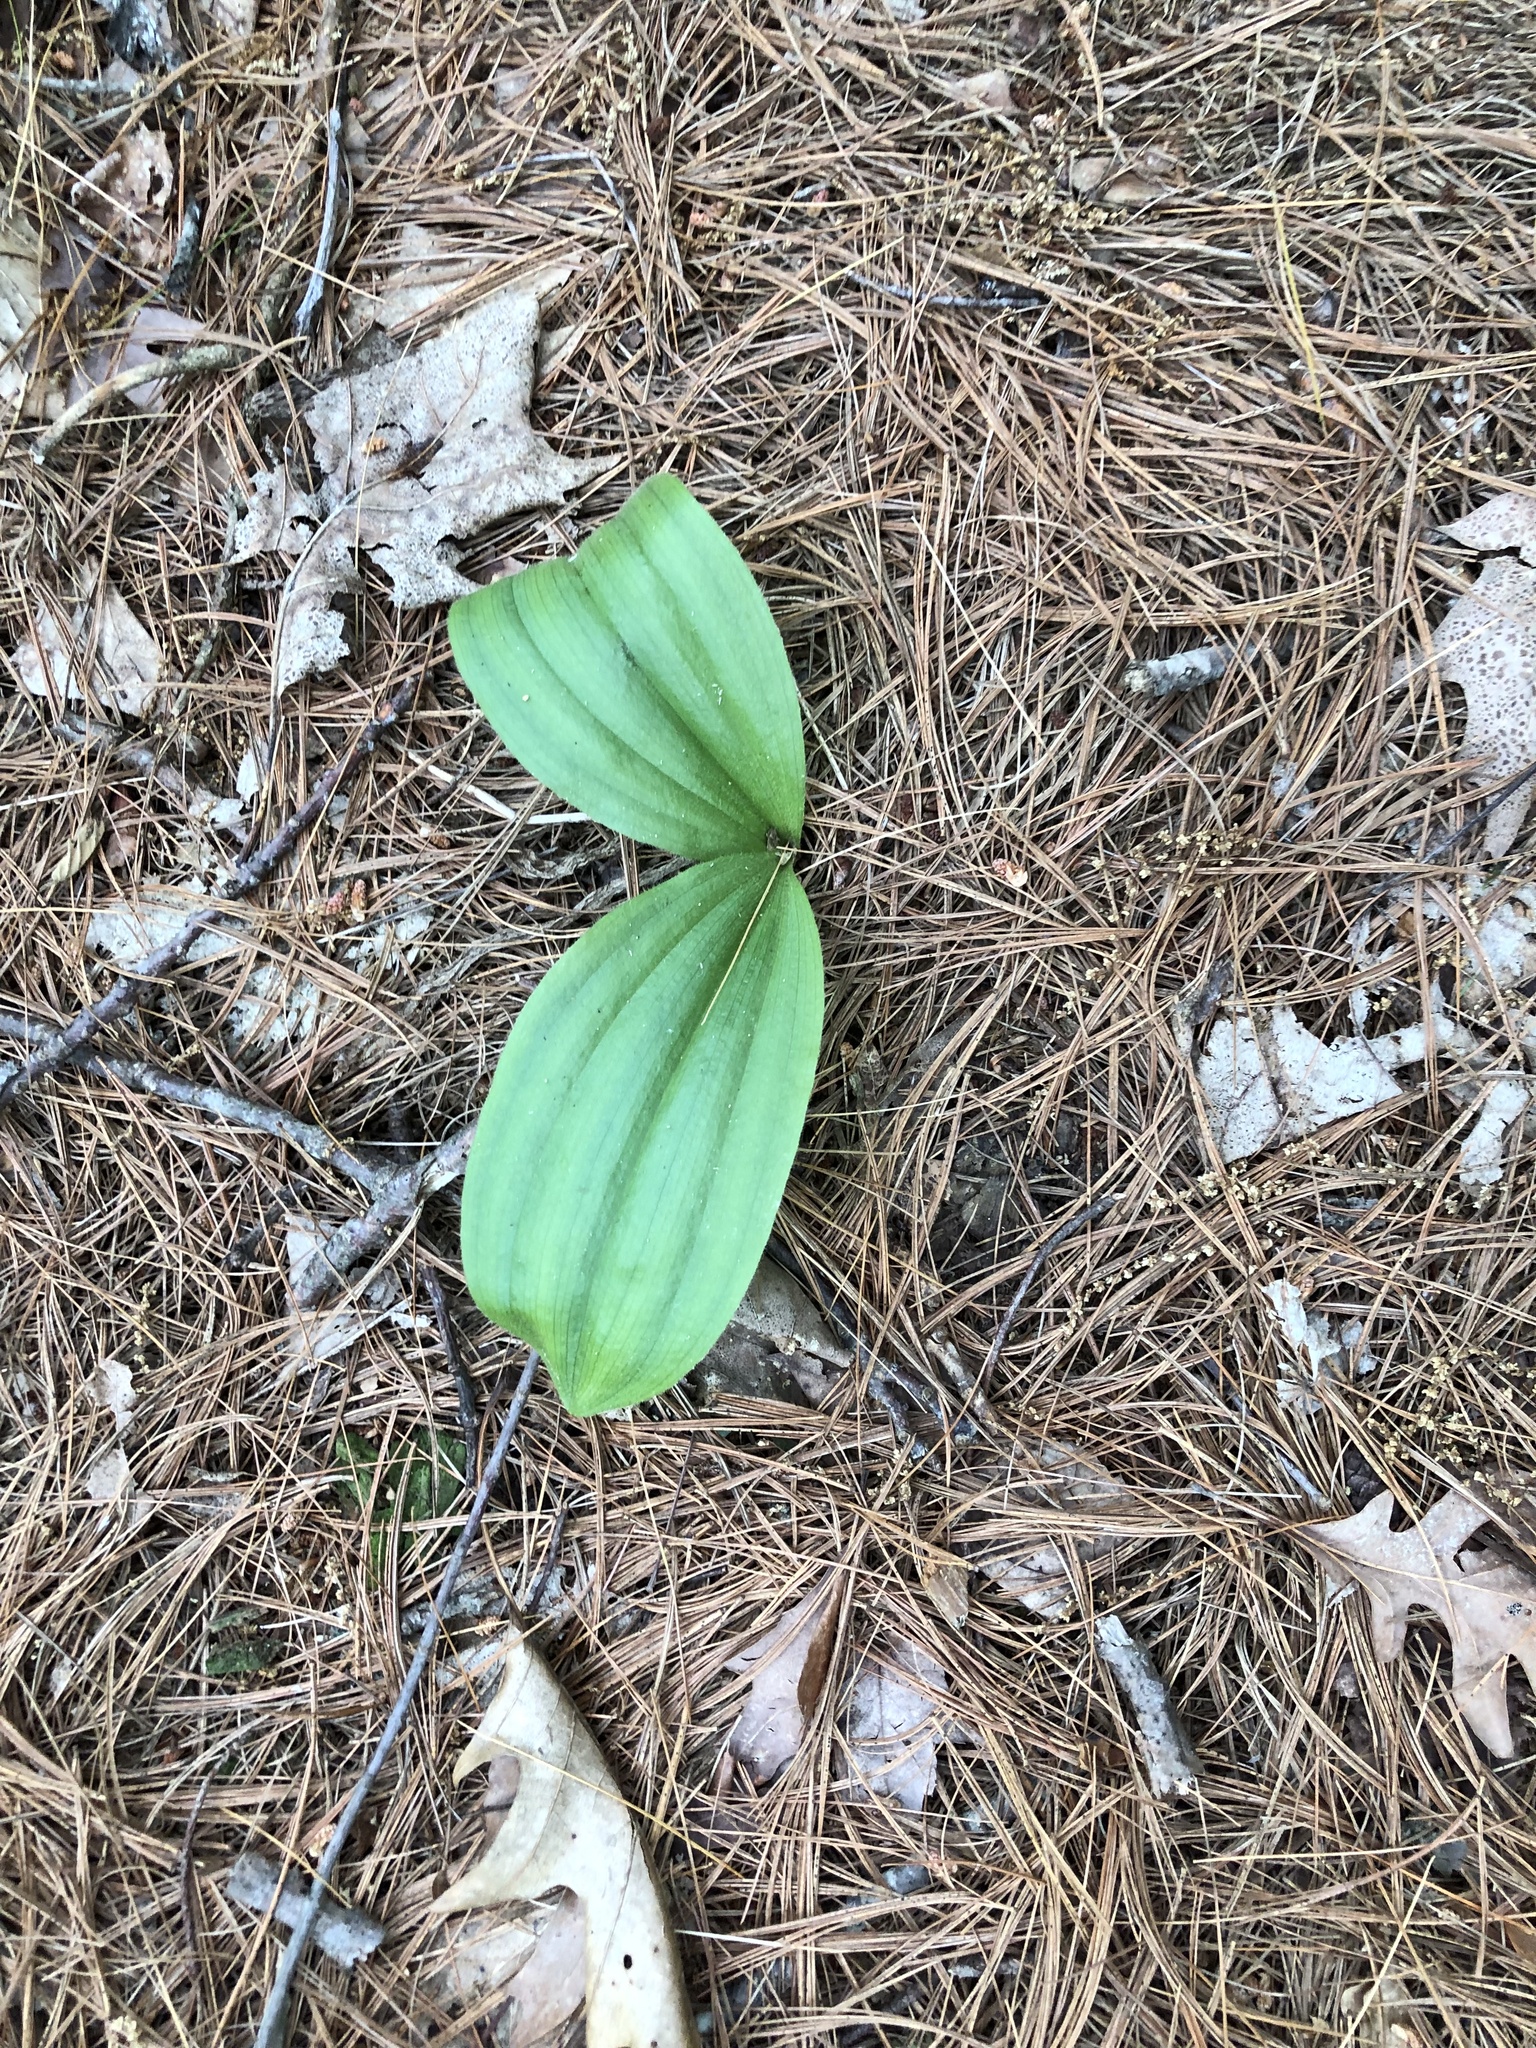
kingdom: Plantae
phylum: Tracheophyta
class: Liliopsida
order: Asparagales
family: Orchidaceae
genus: Cypripedium
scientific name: Cypripedium acaule
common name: Pink lady's-slipper
